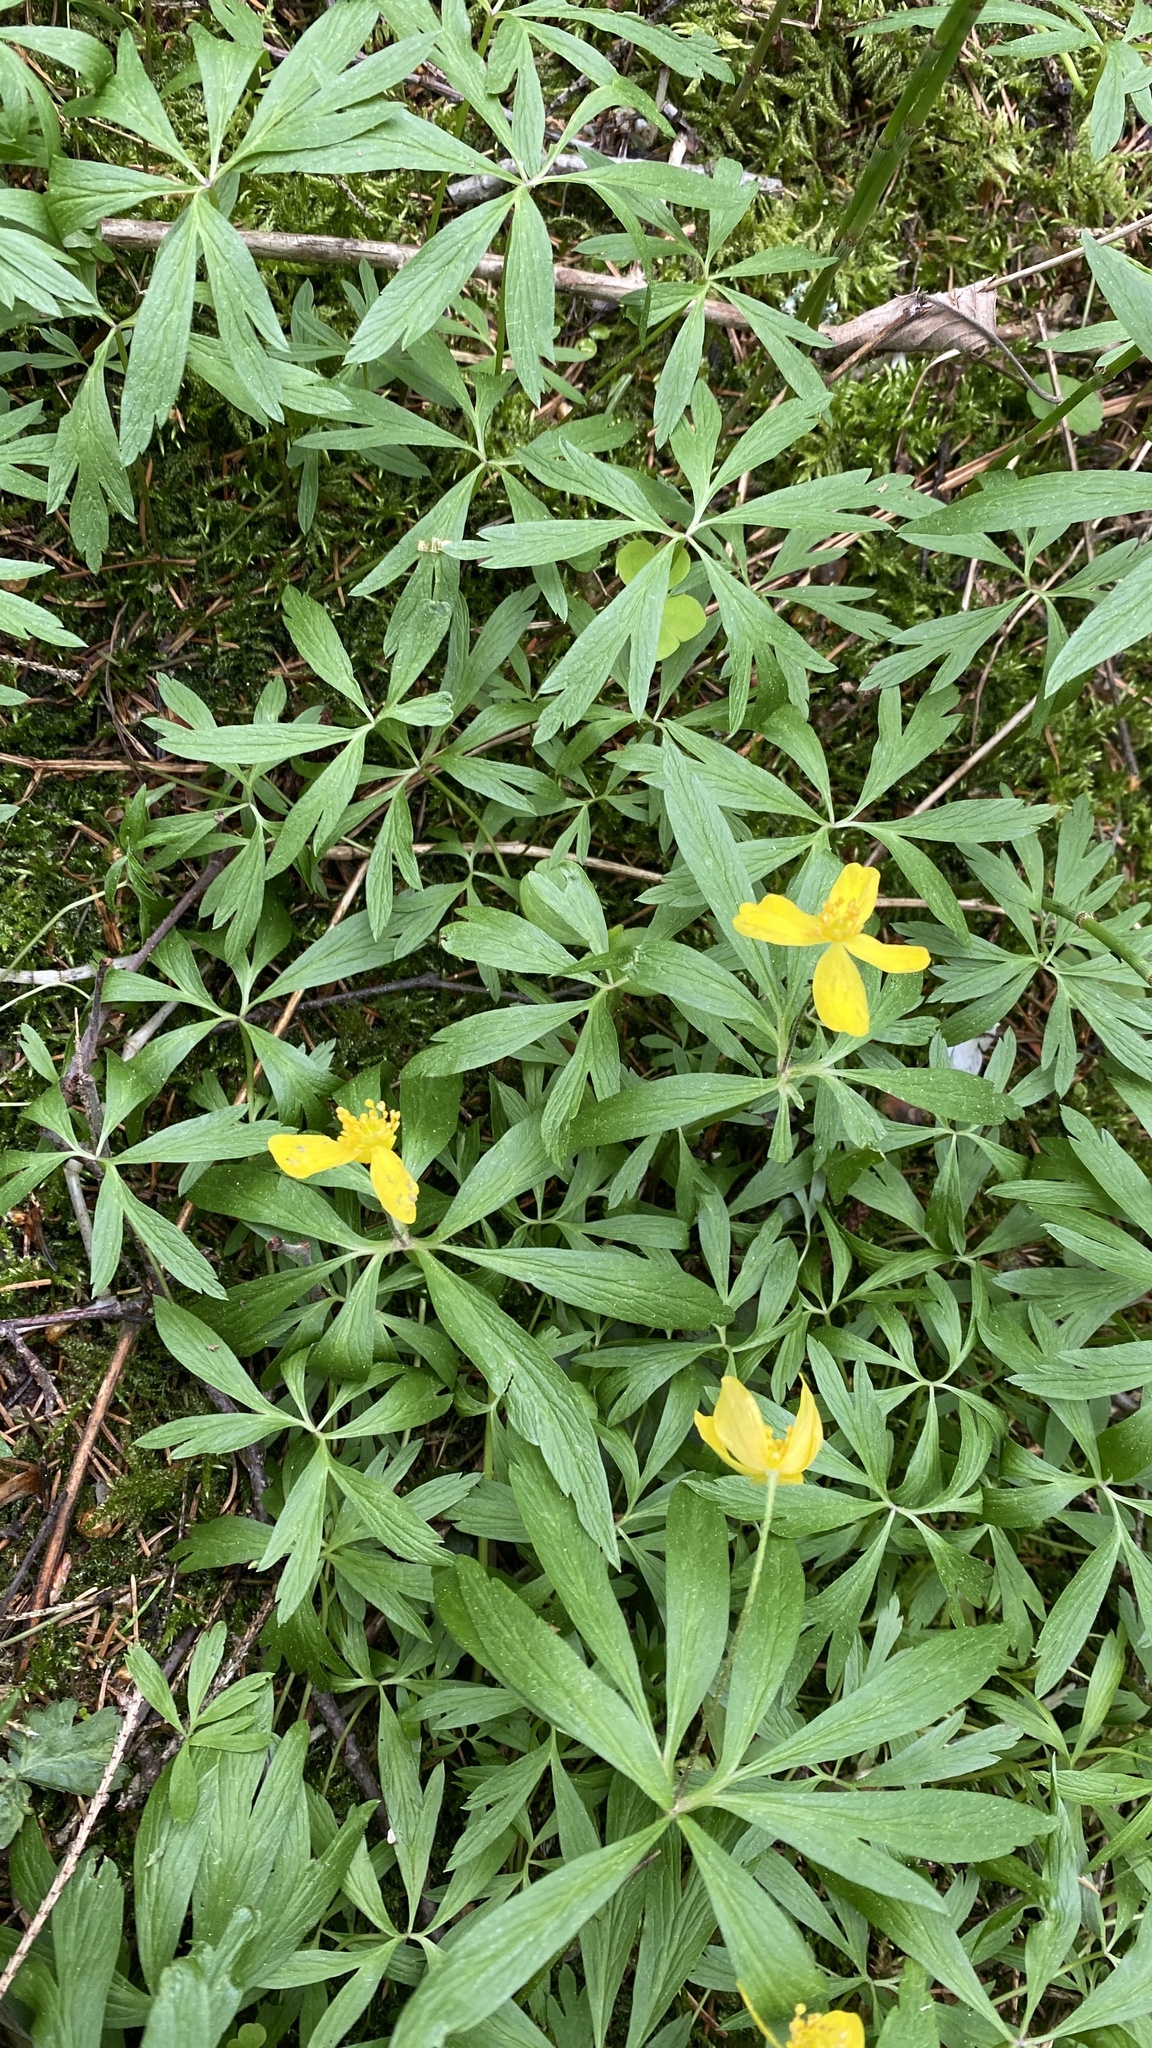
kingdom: Plantae
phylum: Tracheophyta
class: Magnoliopsida
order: Ranunculales
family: Ranunculaceae
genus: Anemone
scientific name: Anemone ranunculoides
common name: Yellow anemone
